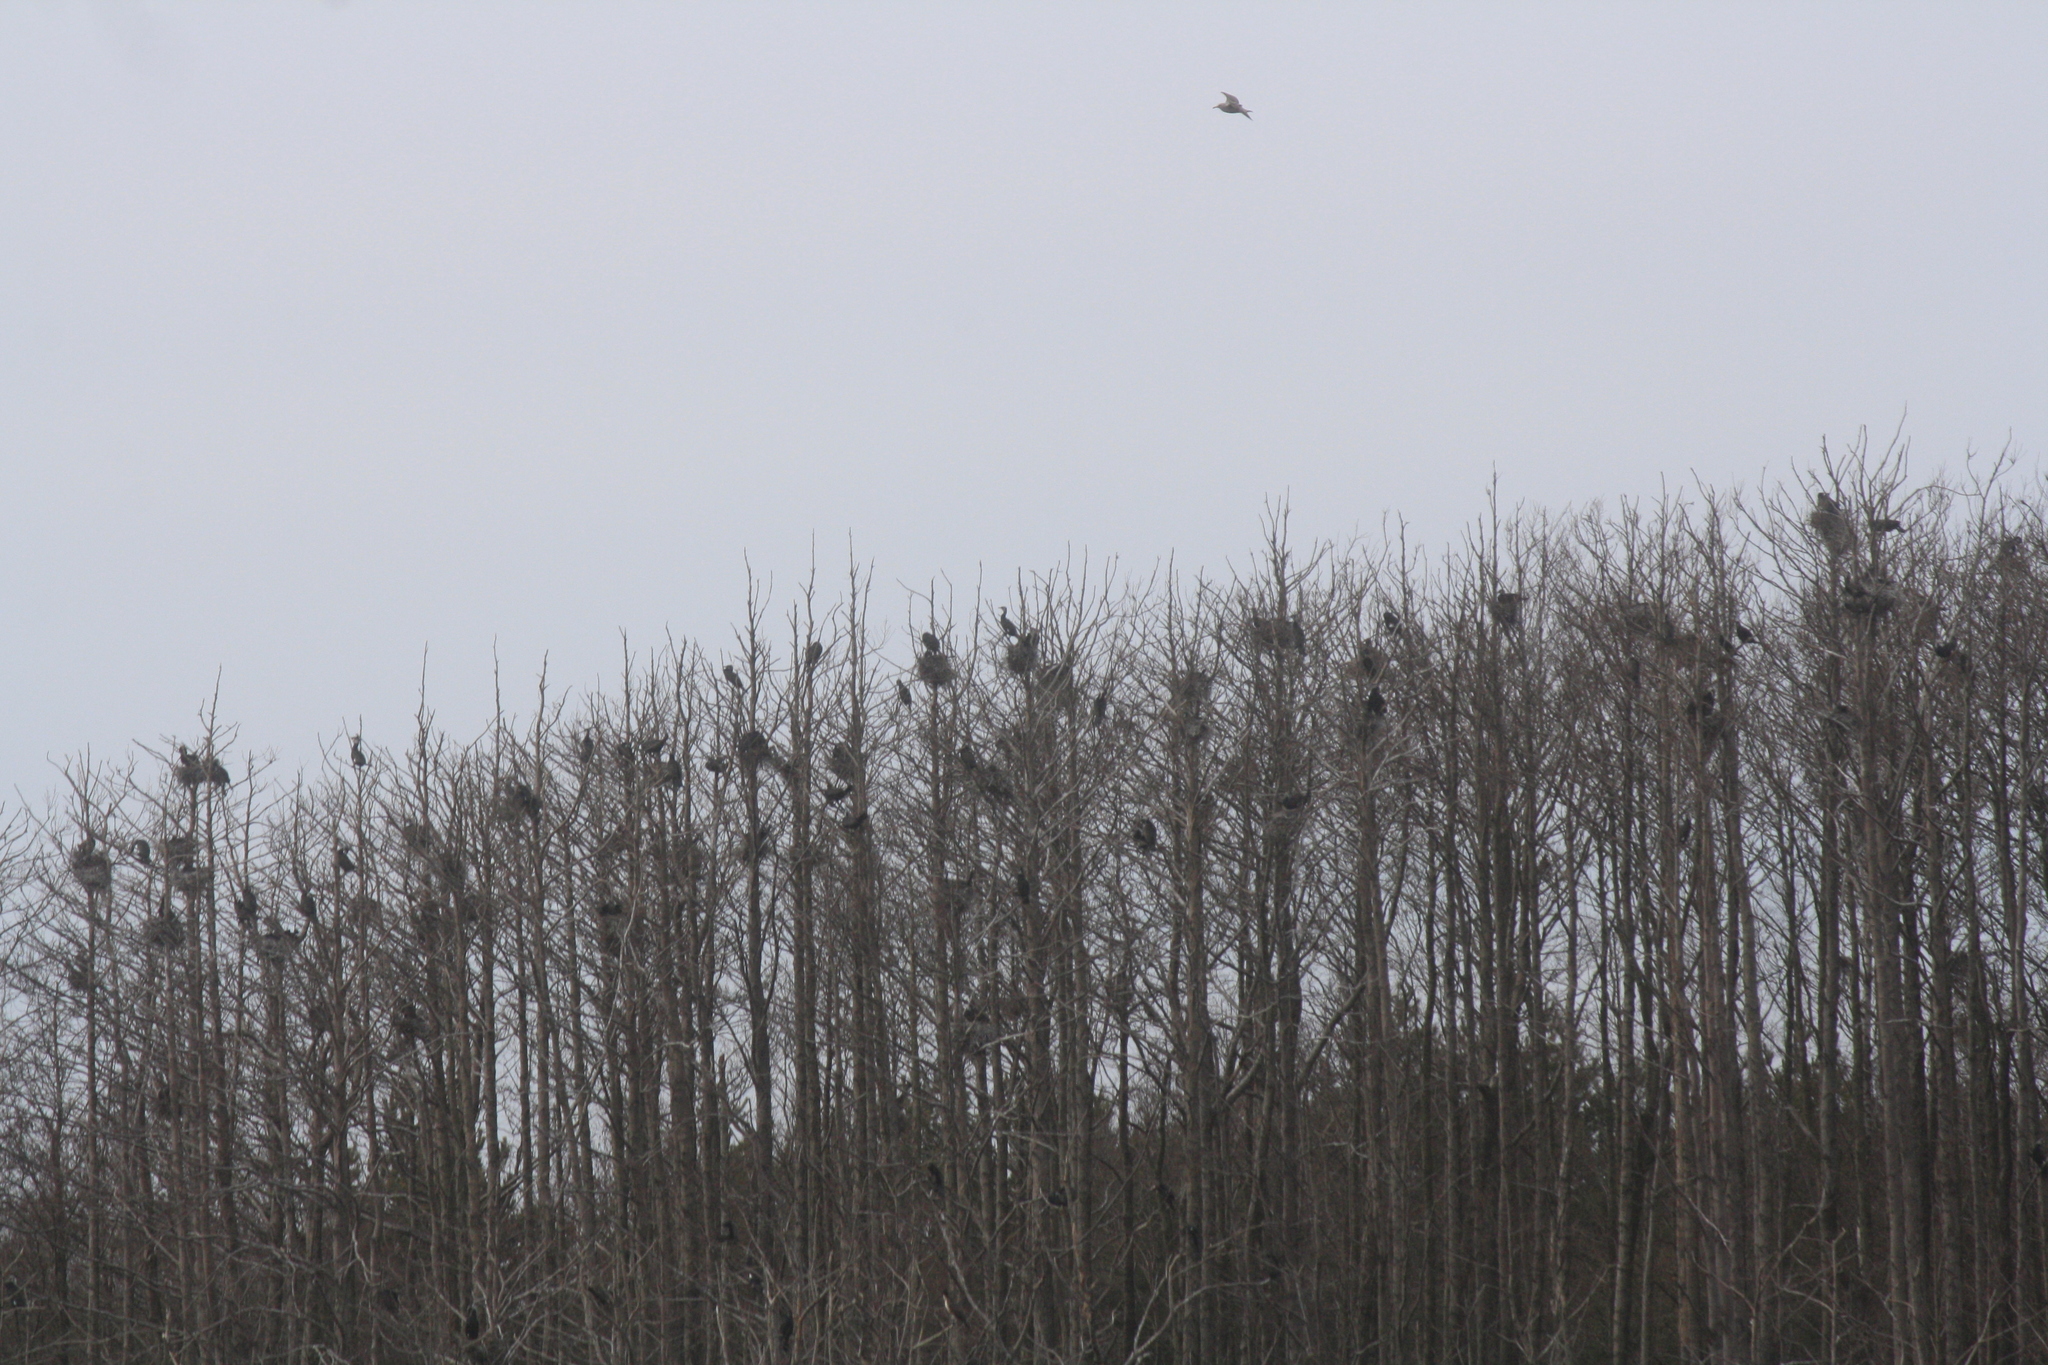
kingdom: Animalia
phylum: Chordata
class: Aves
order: Suliformes
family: Phalacrocoracidae
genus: Phalacrocorax
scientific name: Phalacrocorax carbo
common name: Great cormorant
